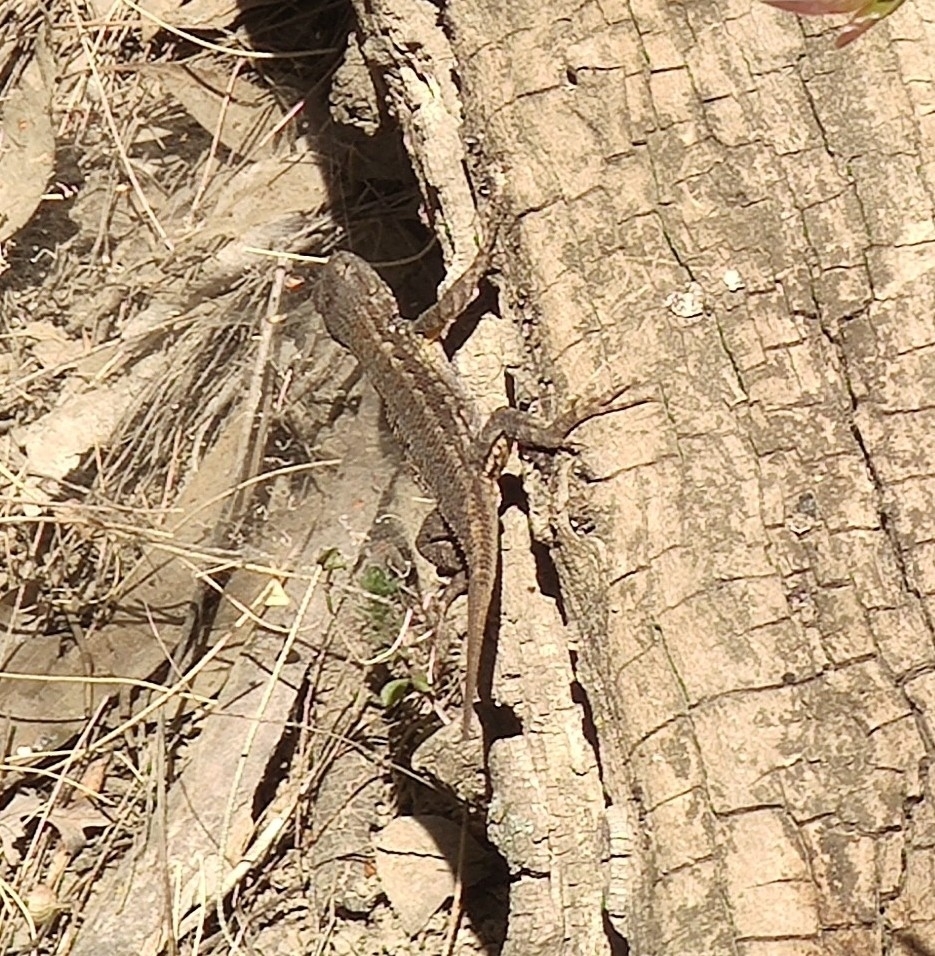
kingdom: Animalia
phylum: Chordata
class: Squamata
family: Phrynosomatidae
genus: Sceloporus
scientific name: Sceloporus occidentalis
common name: Western fence lizard
